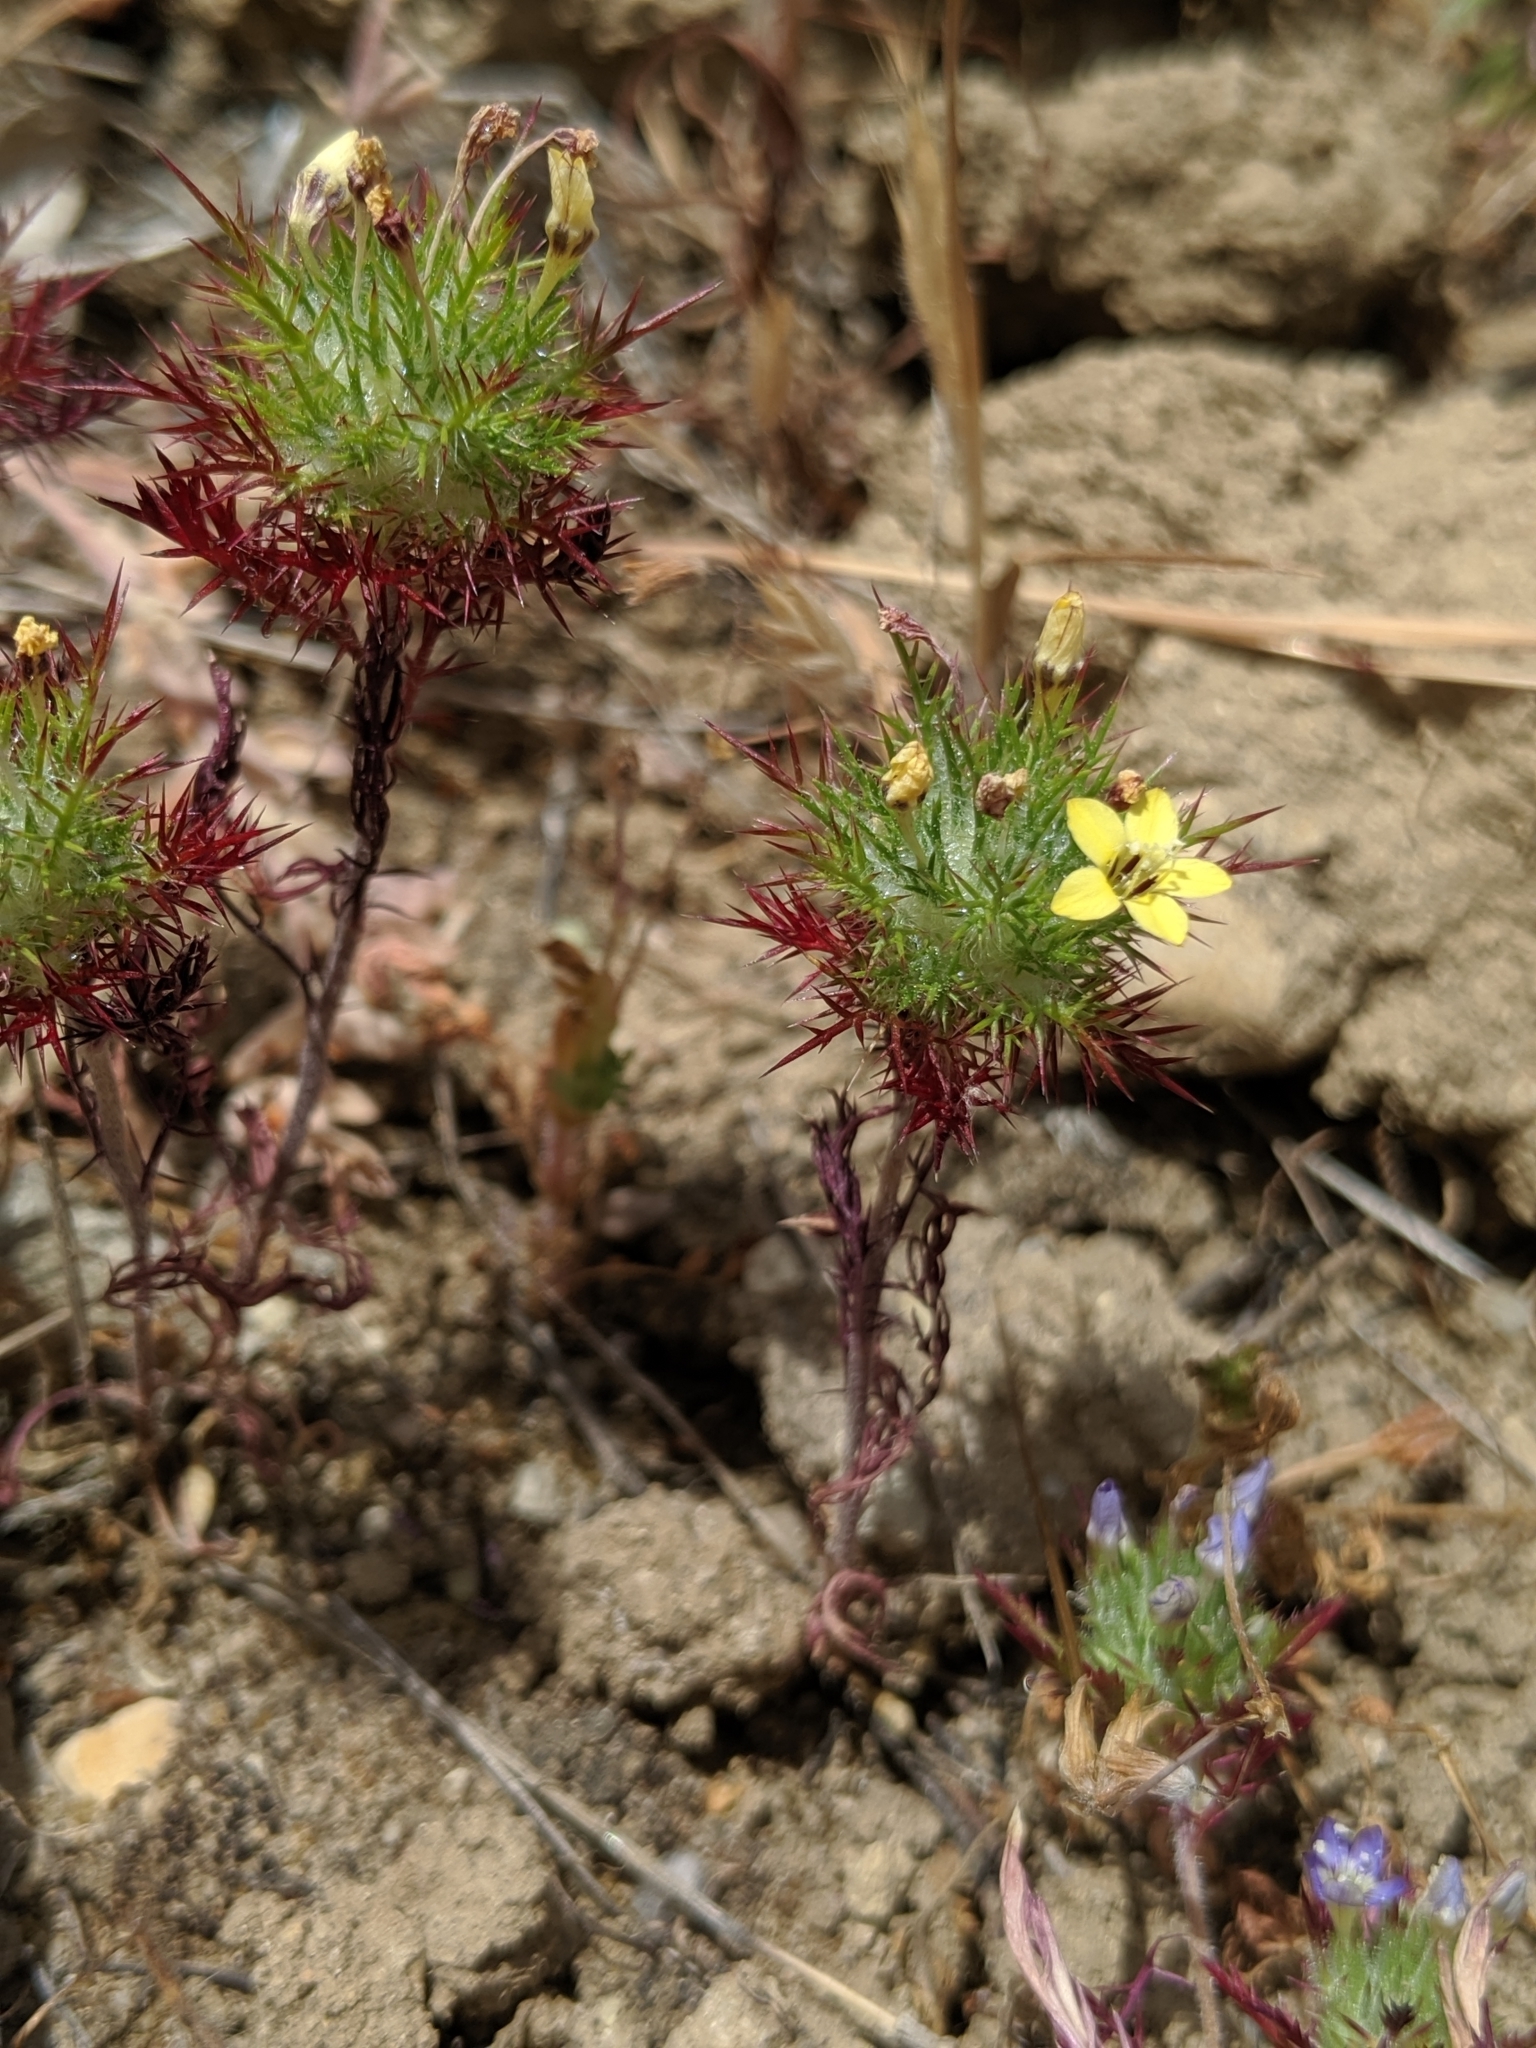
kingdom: Plantae
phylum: Tracheophyta
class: Magnoliopsida
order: Ericales
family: Polemoniaceae
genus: Navarretia
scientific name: Navarretia nigelliformis
